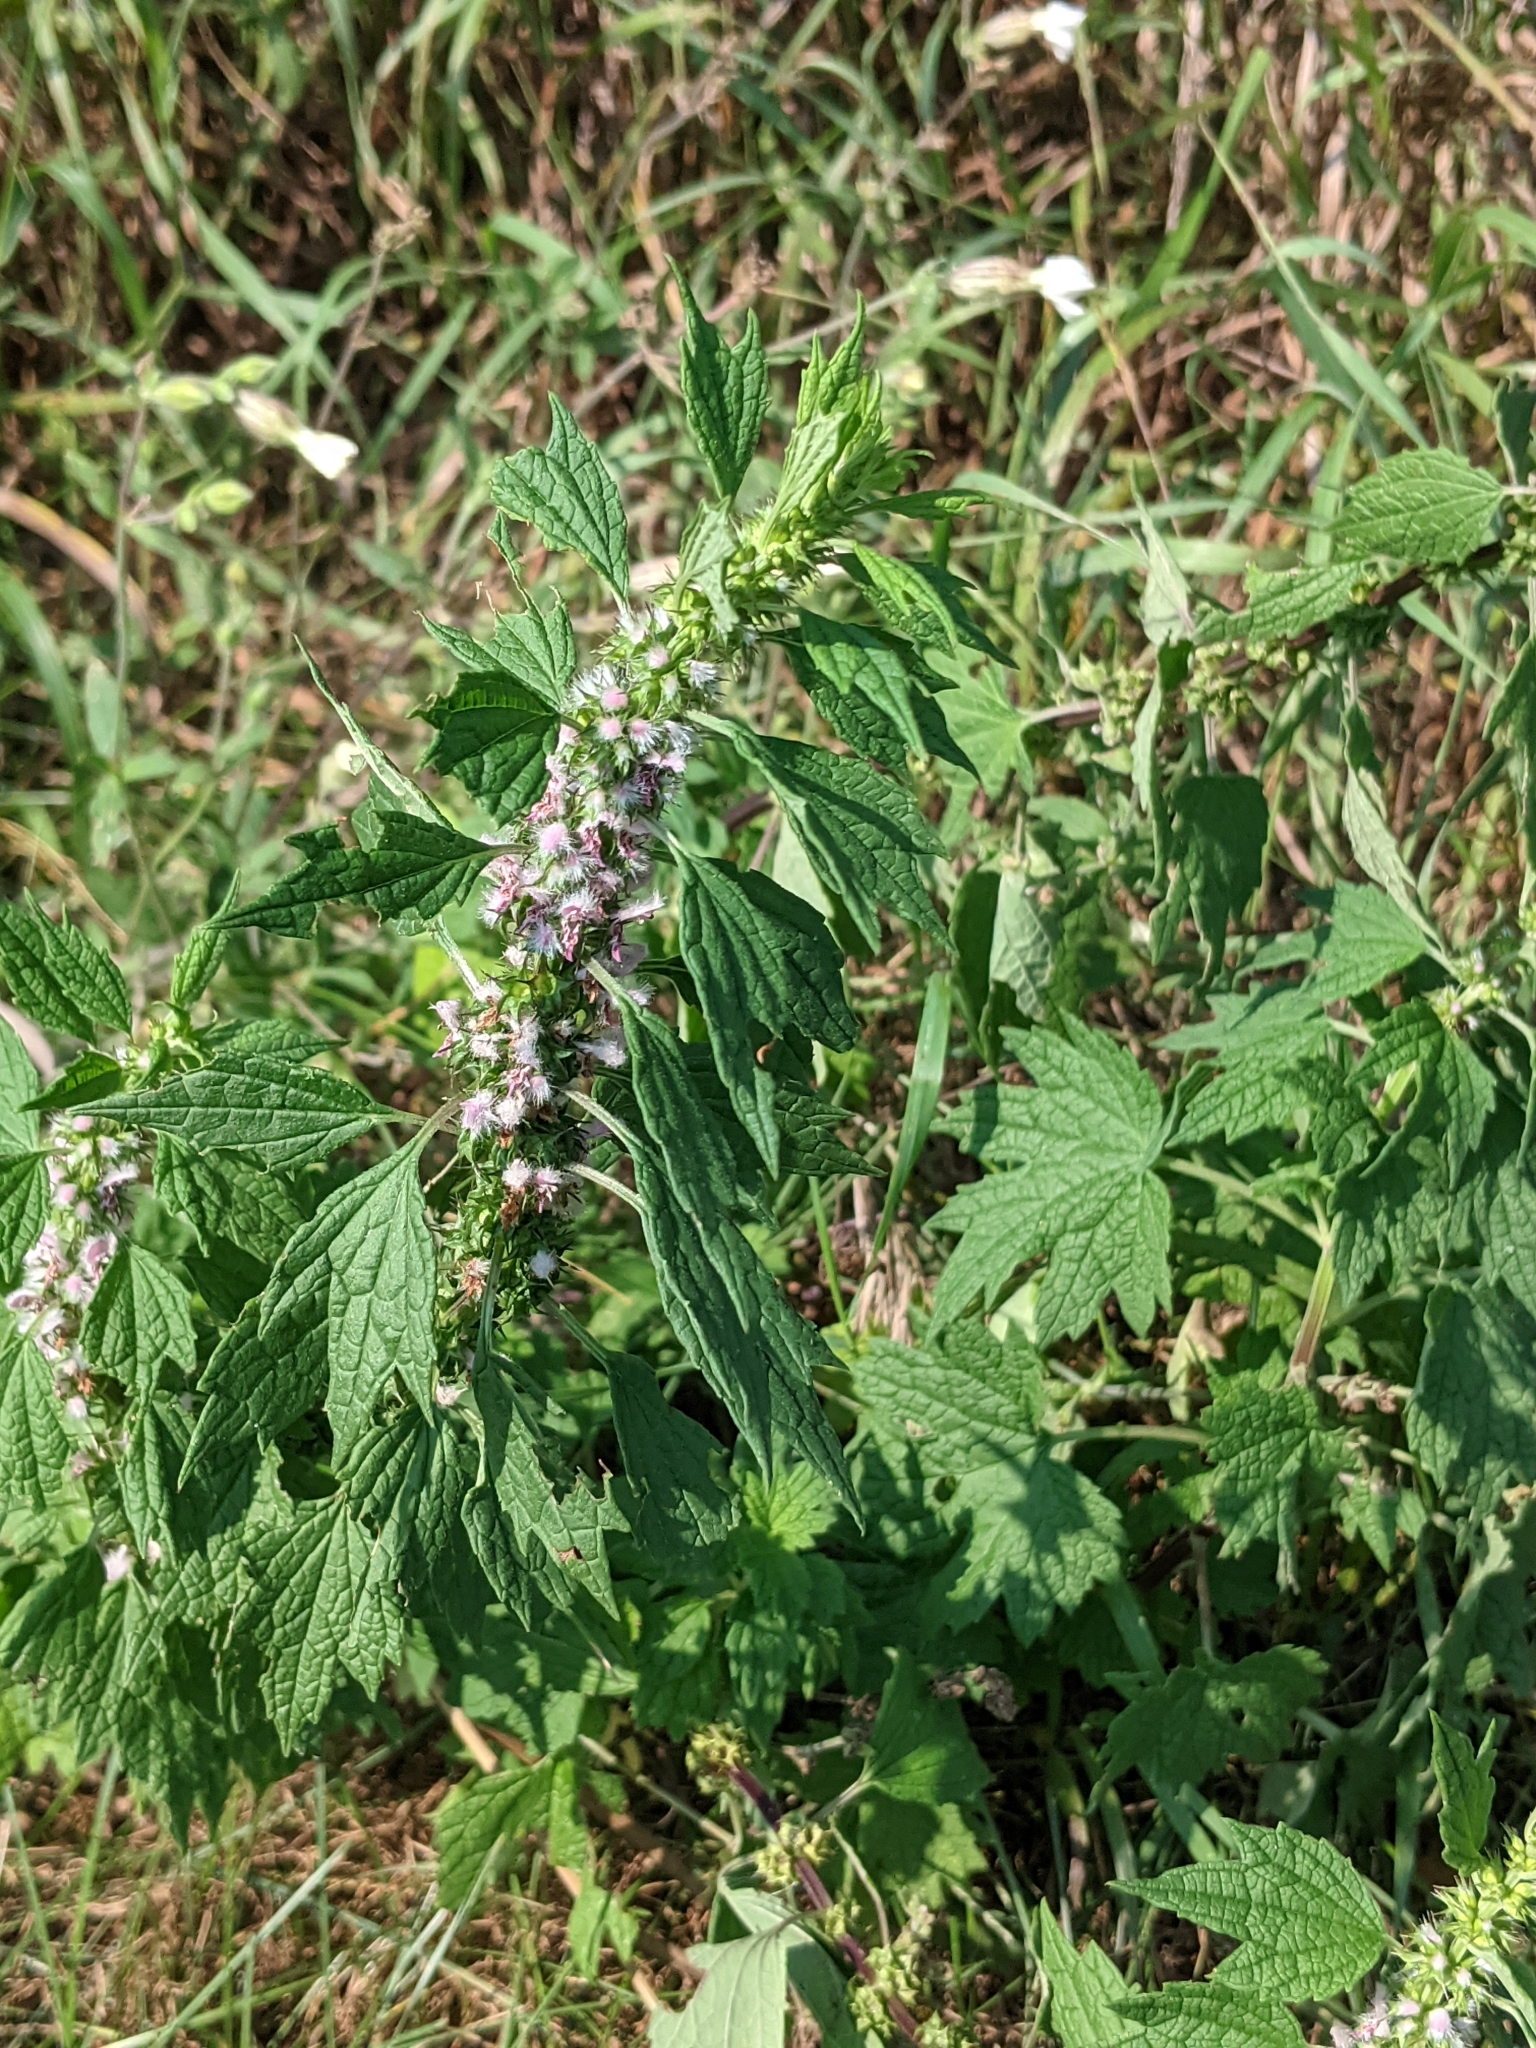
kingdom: Plantae
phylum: Tracheophyta
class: Magnoliopsida
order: Lamiales
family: Lamiaceae
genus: Leonurus
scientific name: Leonurus cardiaca
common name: Motherwort
